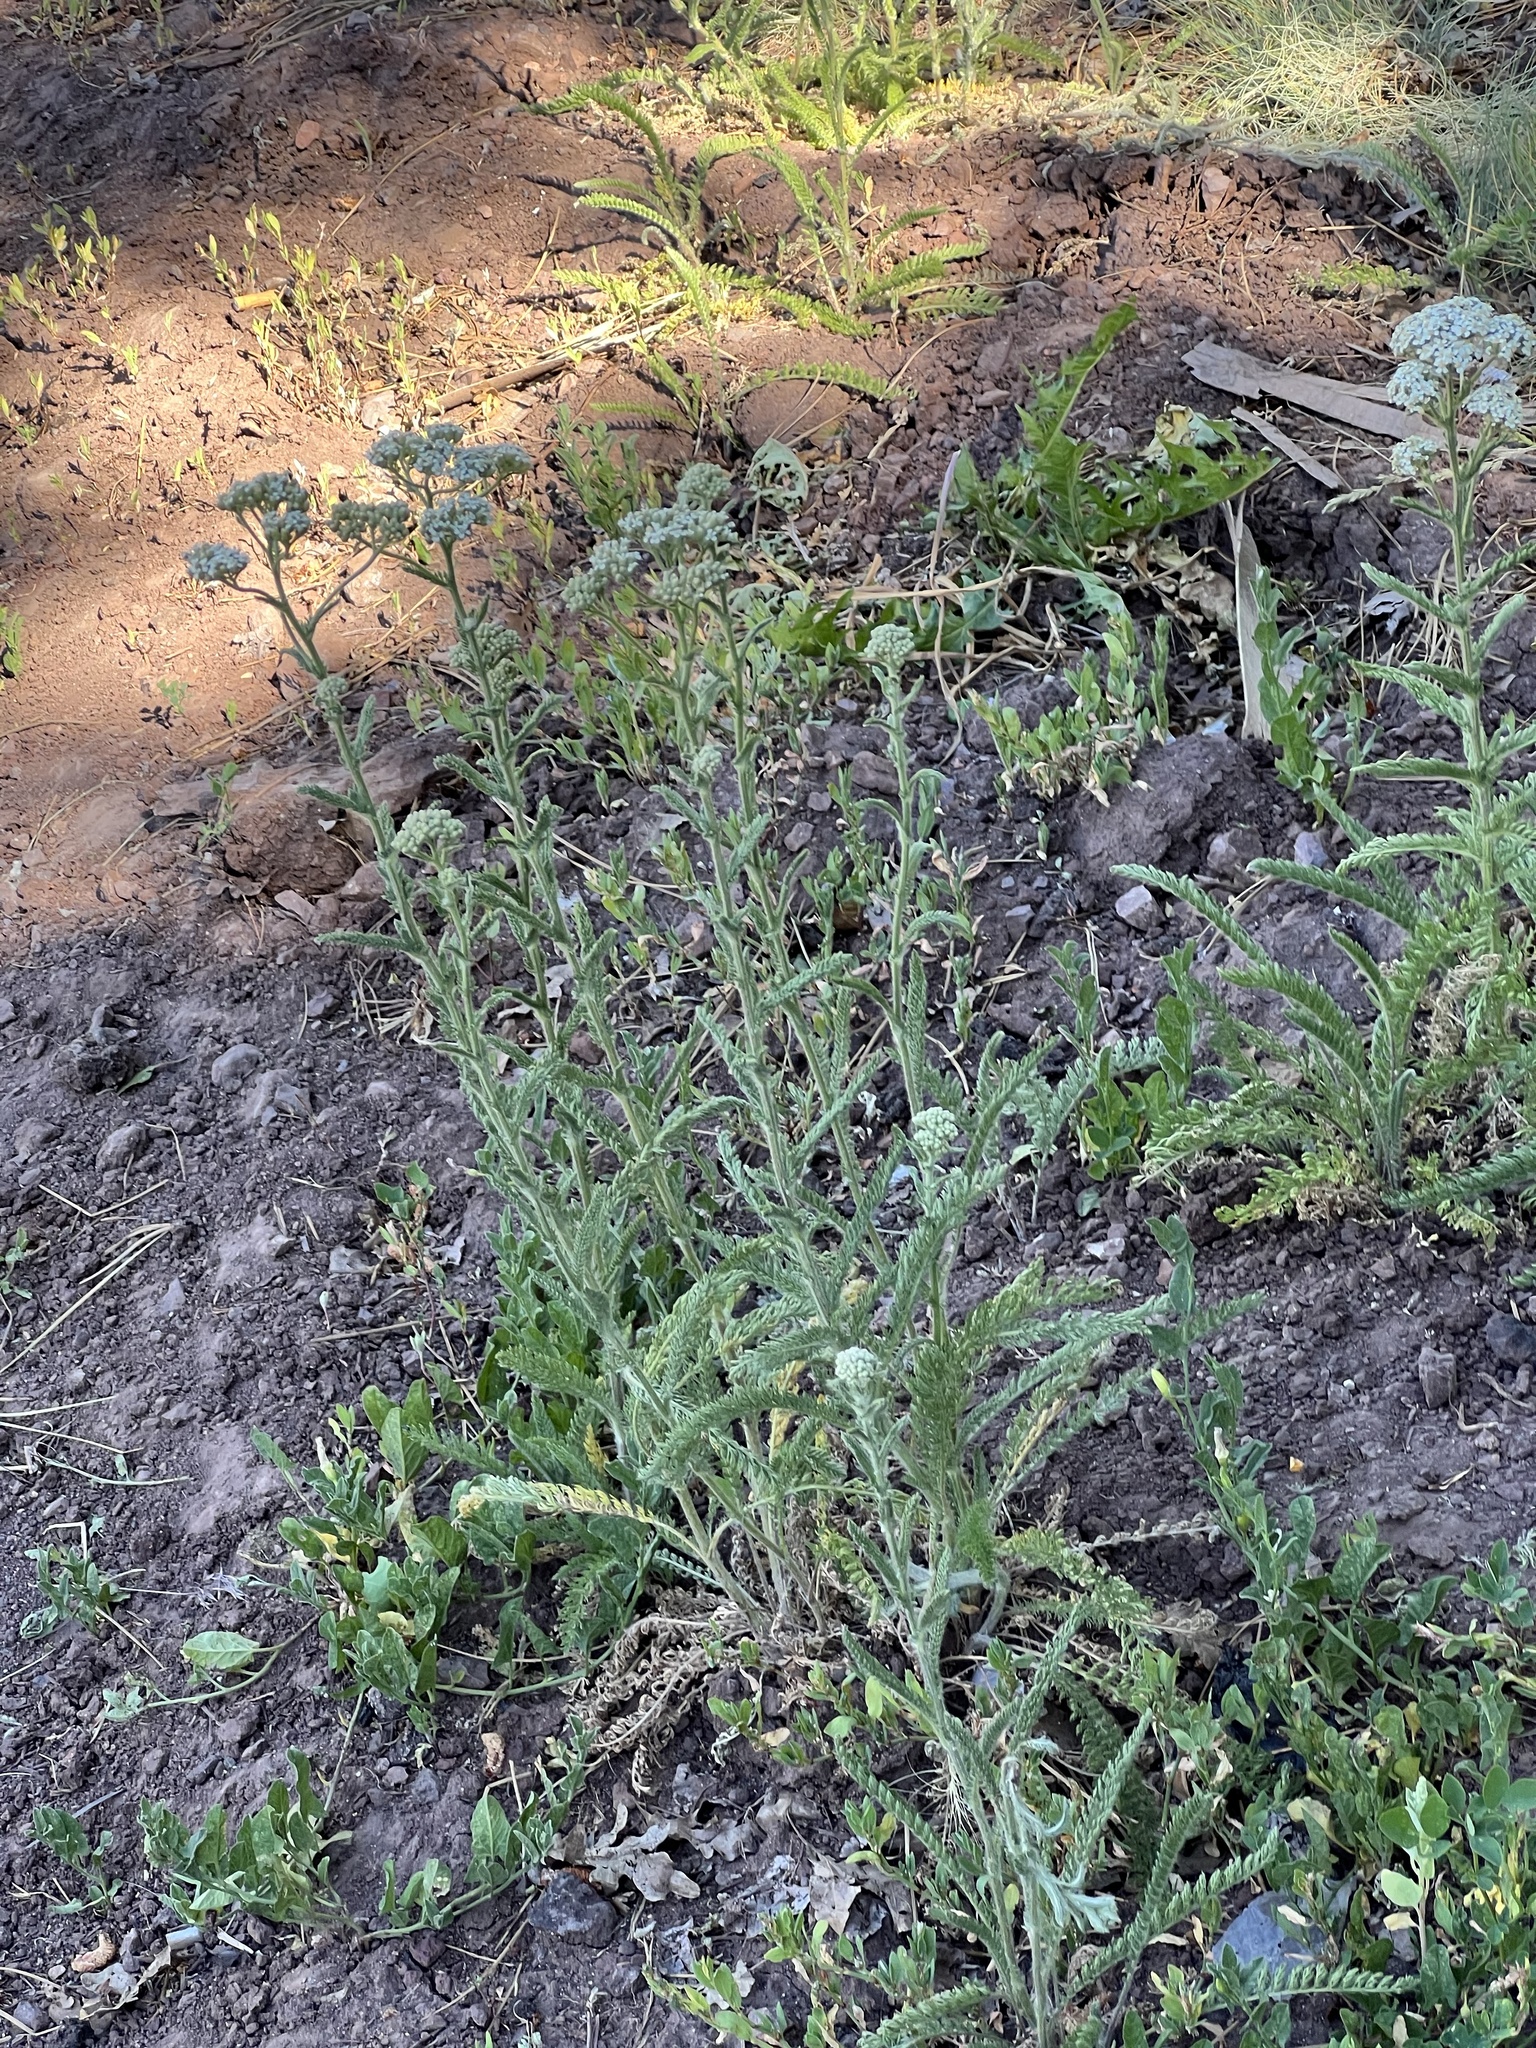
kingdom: Plantae
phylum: Tracheophyta
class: Magnoliopsida
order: Asterales
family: Asteraceae
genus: Achillea
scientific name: Achillea millefolium
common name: Yarrow
